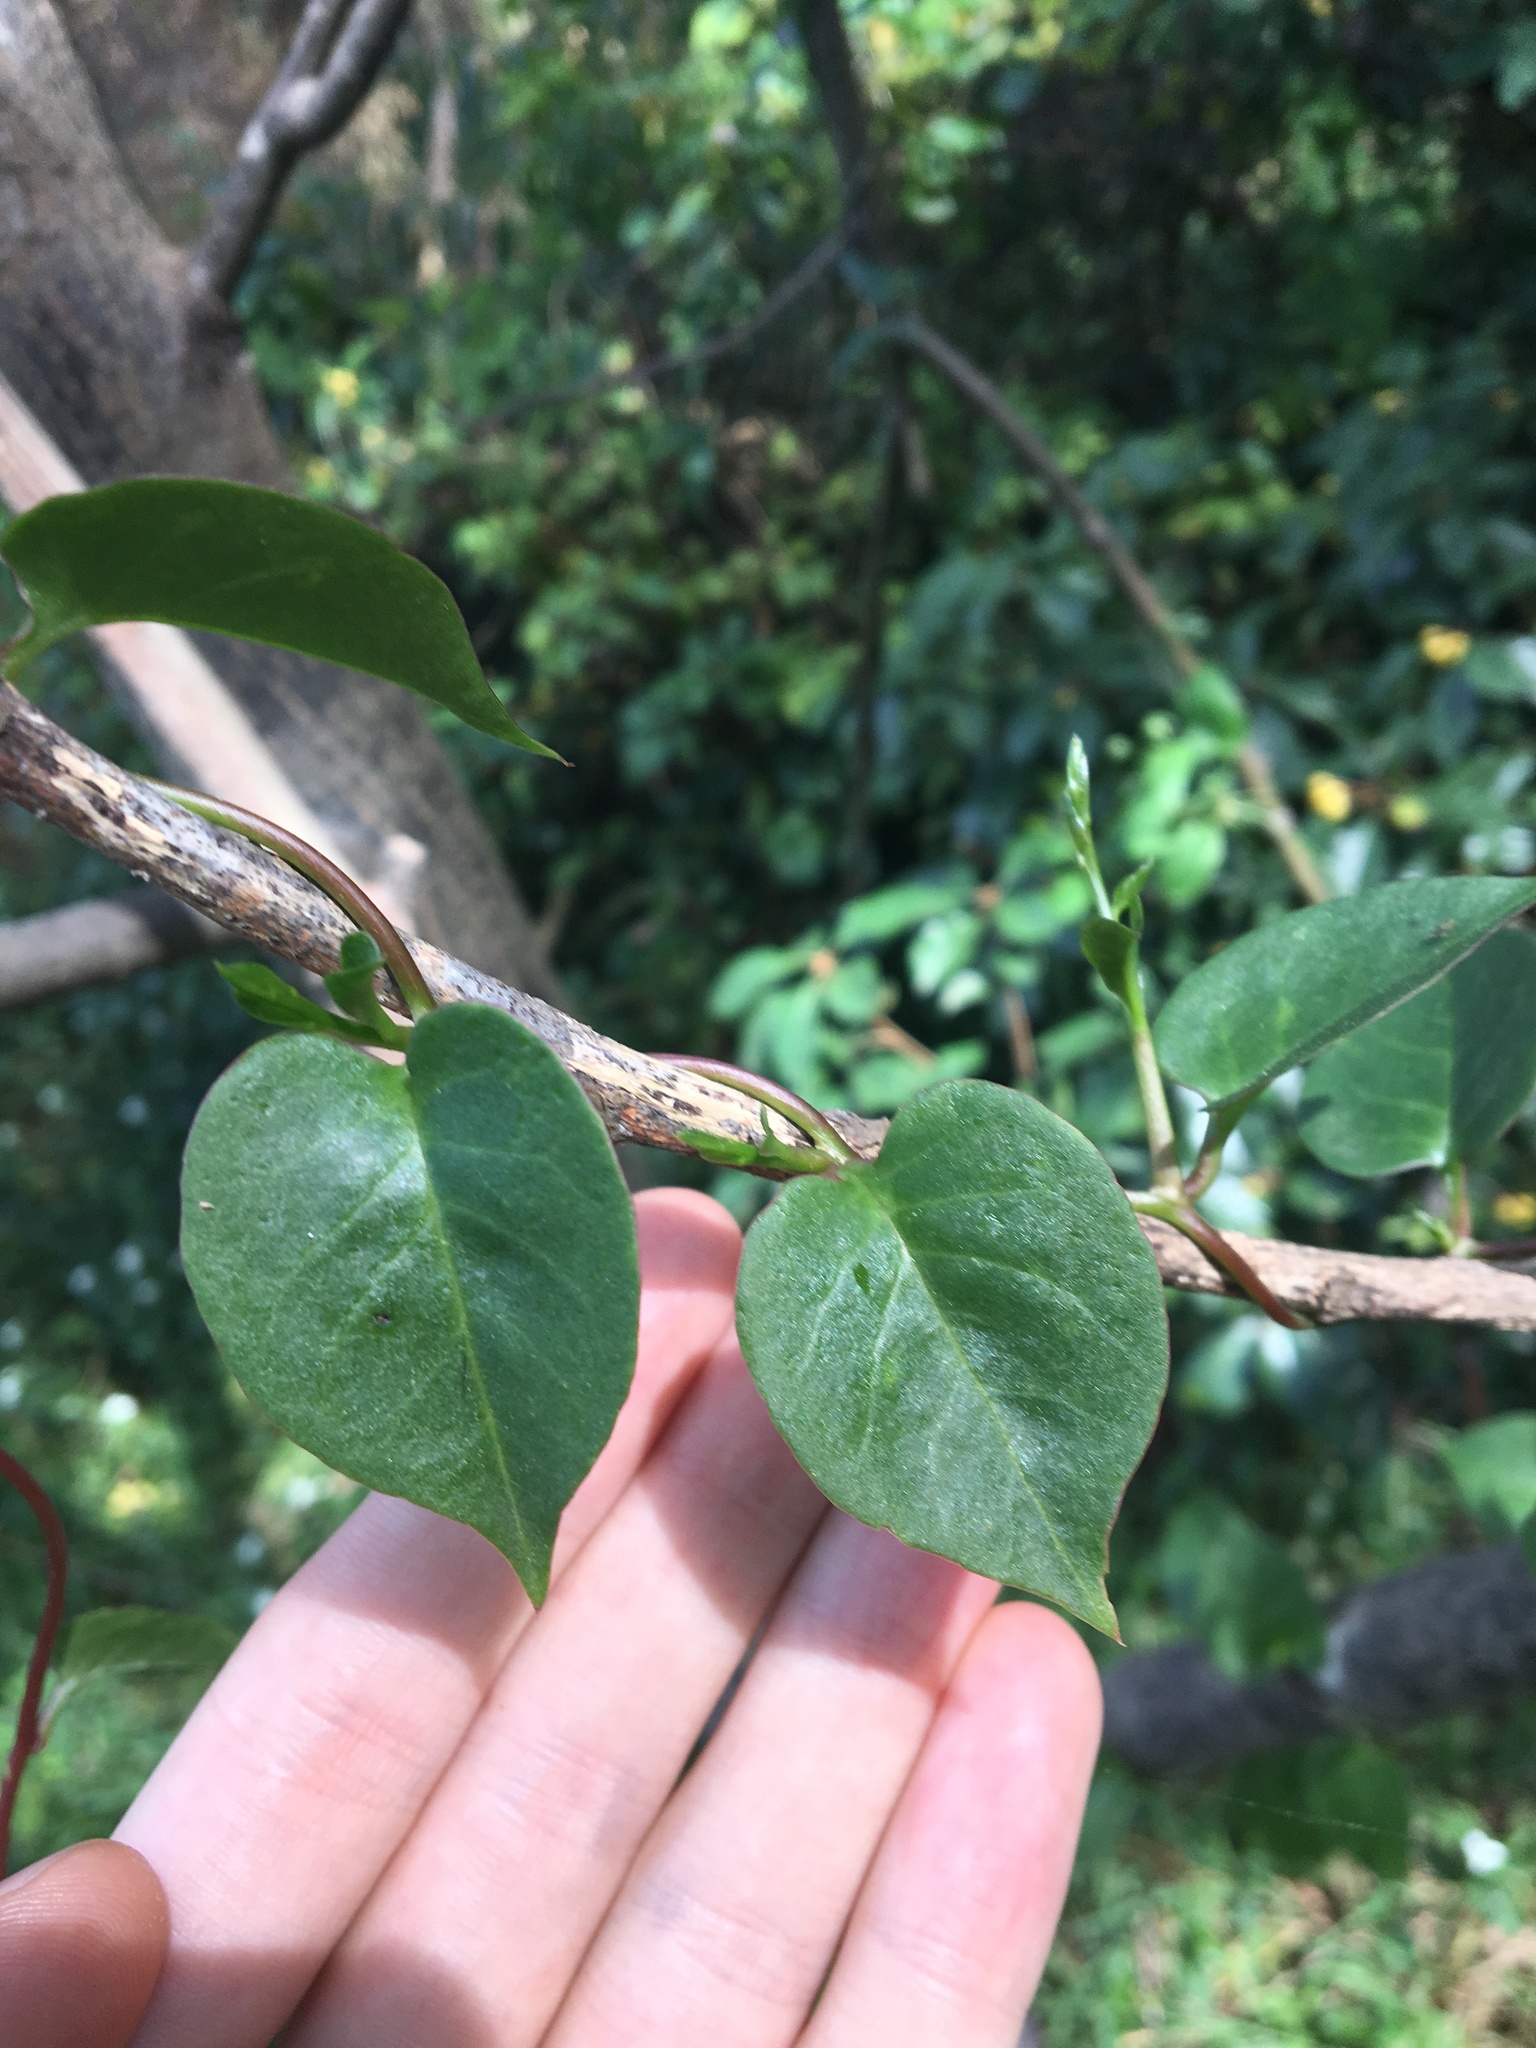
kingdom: Plantae
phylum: Tracheophyta
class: Magnoliopsida
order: Caryophyllales
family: Basellaceae
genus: Anredera
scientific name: Anredera cordifolia
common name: Heartleaf madeiravine
